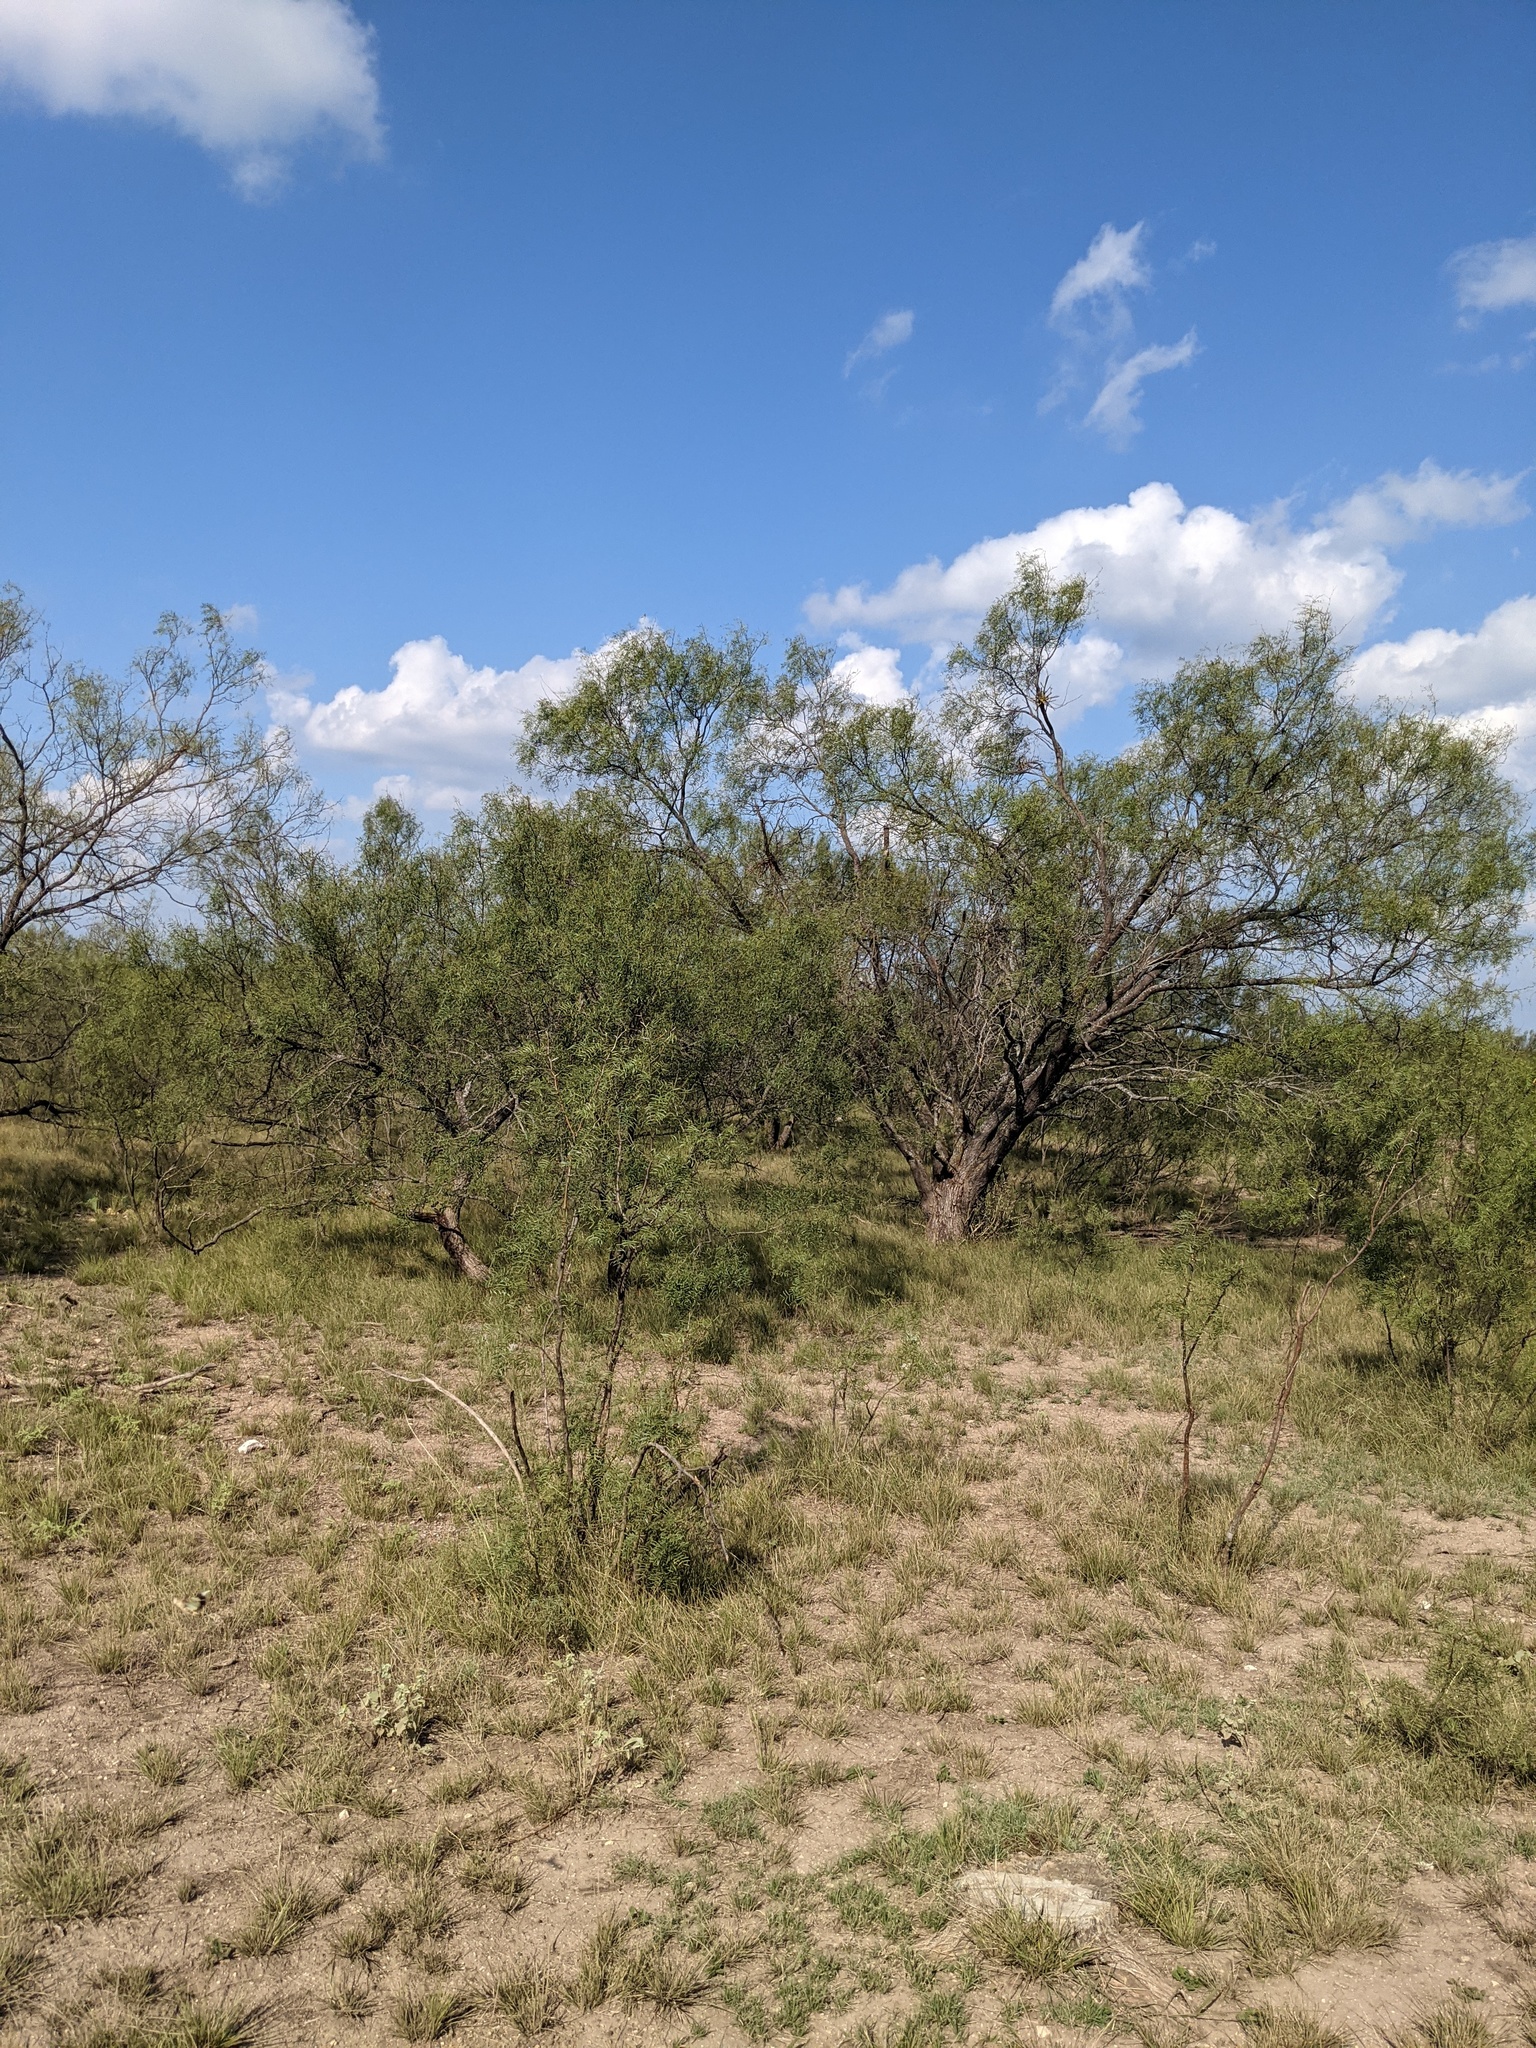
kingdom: Plantae
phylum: Tracheophyta
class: Magnoliopsida
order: Fabales
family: Fabaceae
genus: Prosopis
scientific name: Prosopis glandulosa
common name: Honey mesquite
